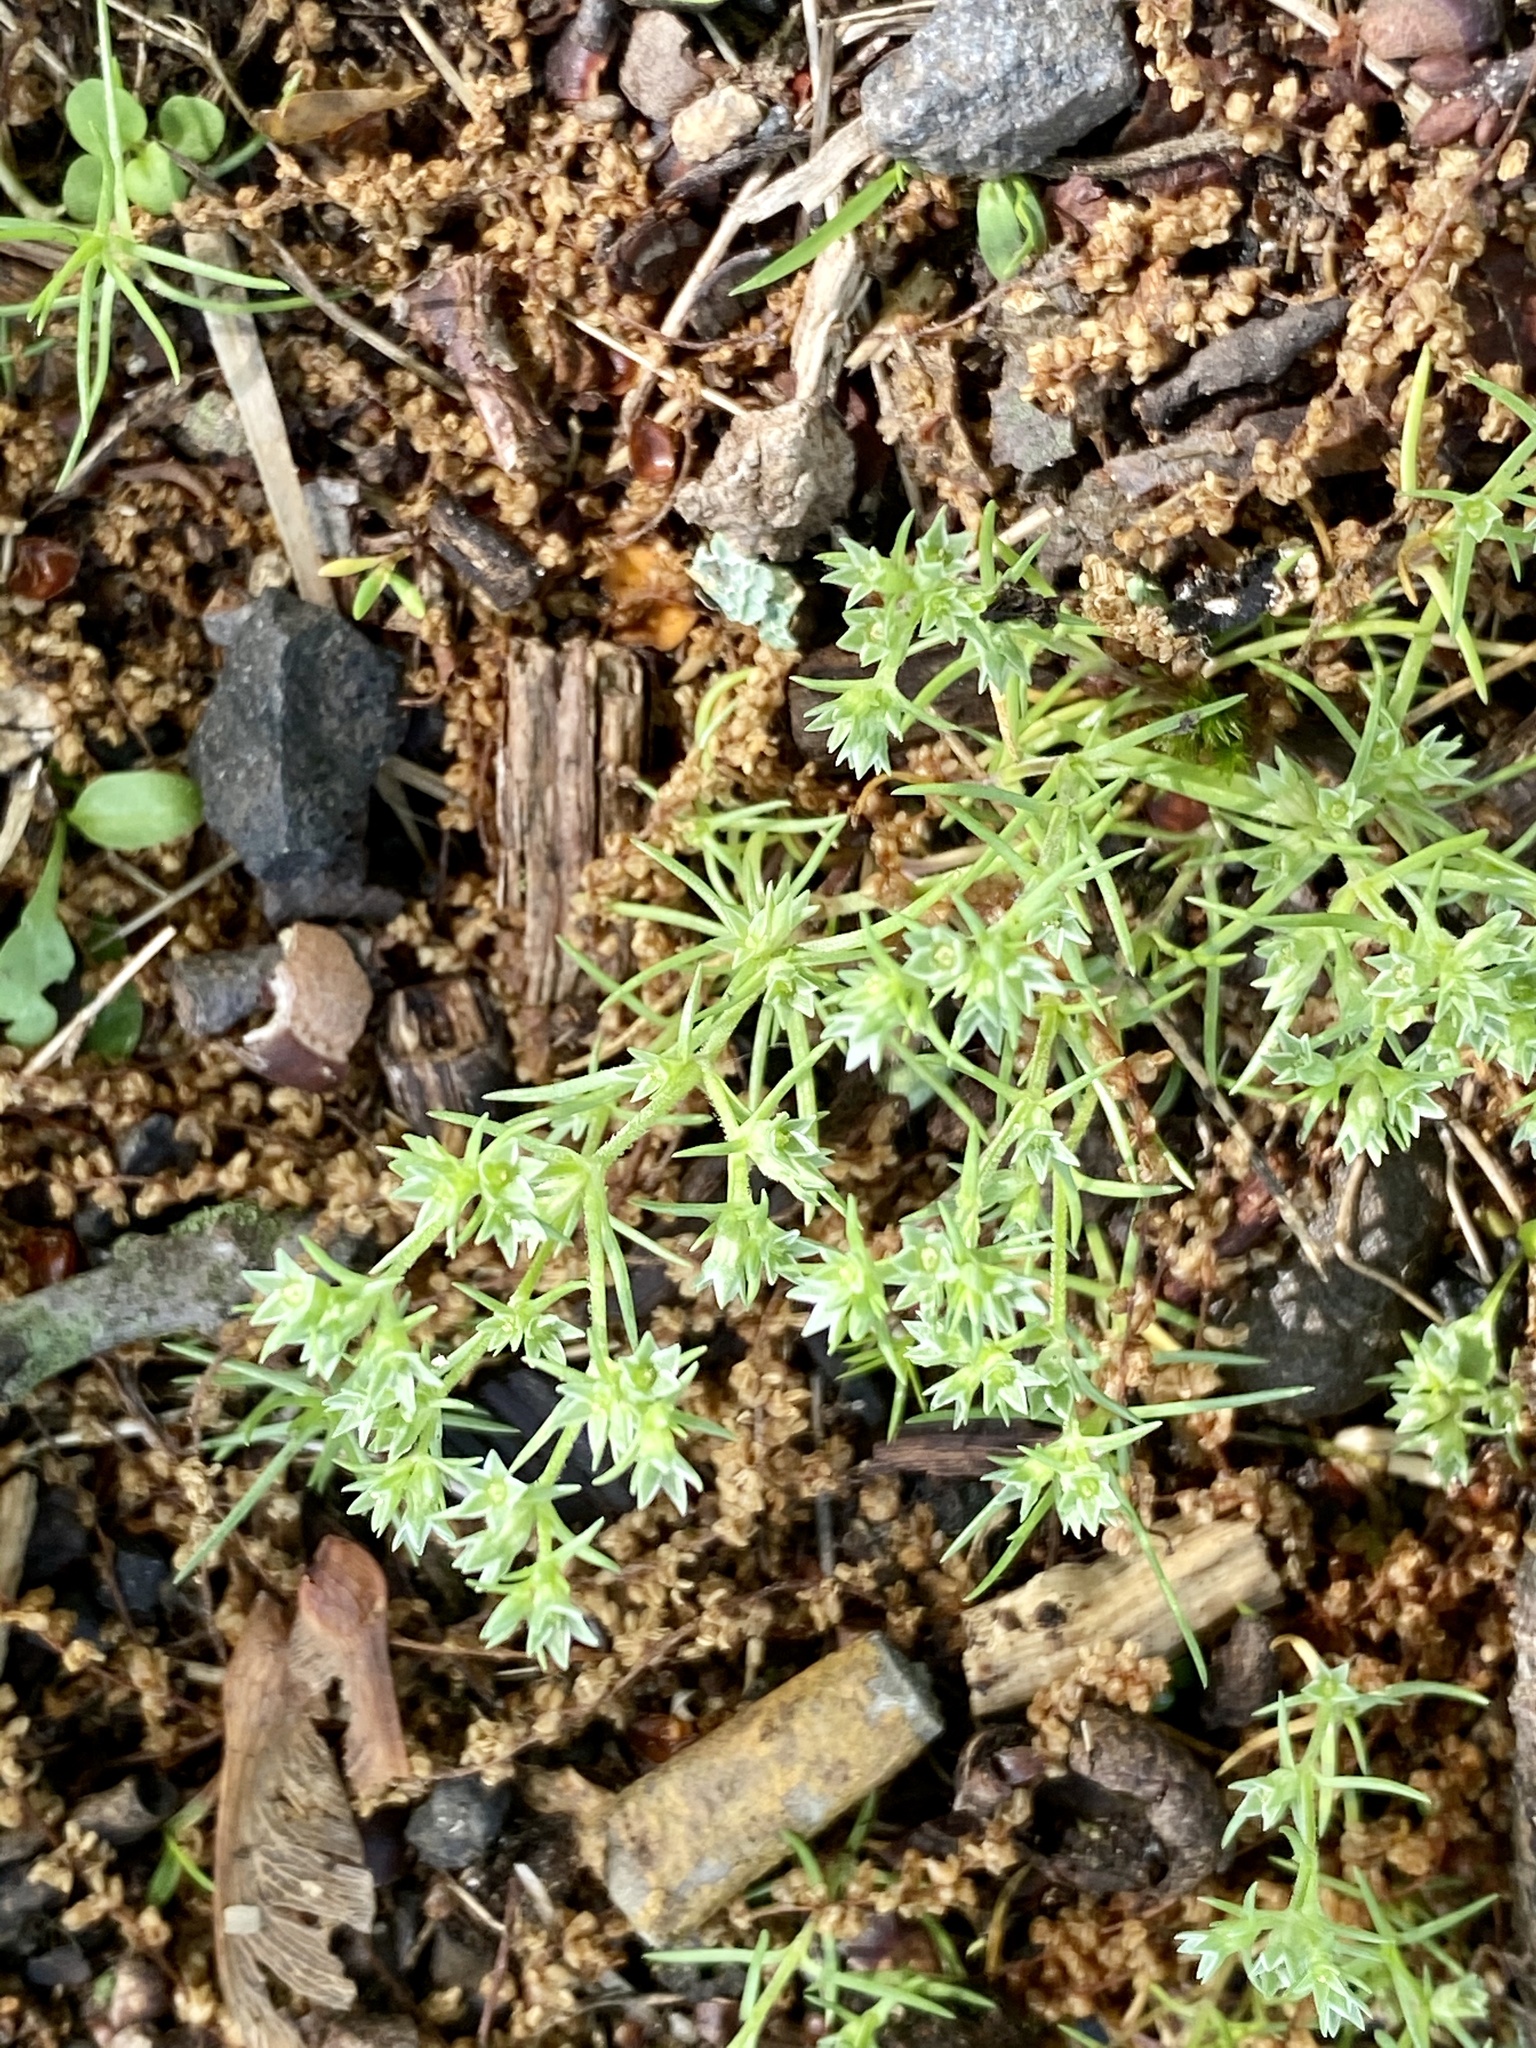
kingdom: Plantae
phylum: Tracheophyta
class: Magnoliopsida
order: Caryophyllales
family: Caryophyllaceae
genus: Scleranthus
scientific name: Scleranthus annuus
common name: Annual knawel
